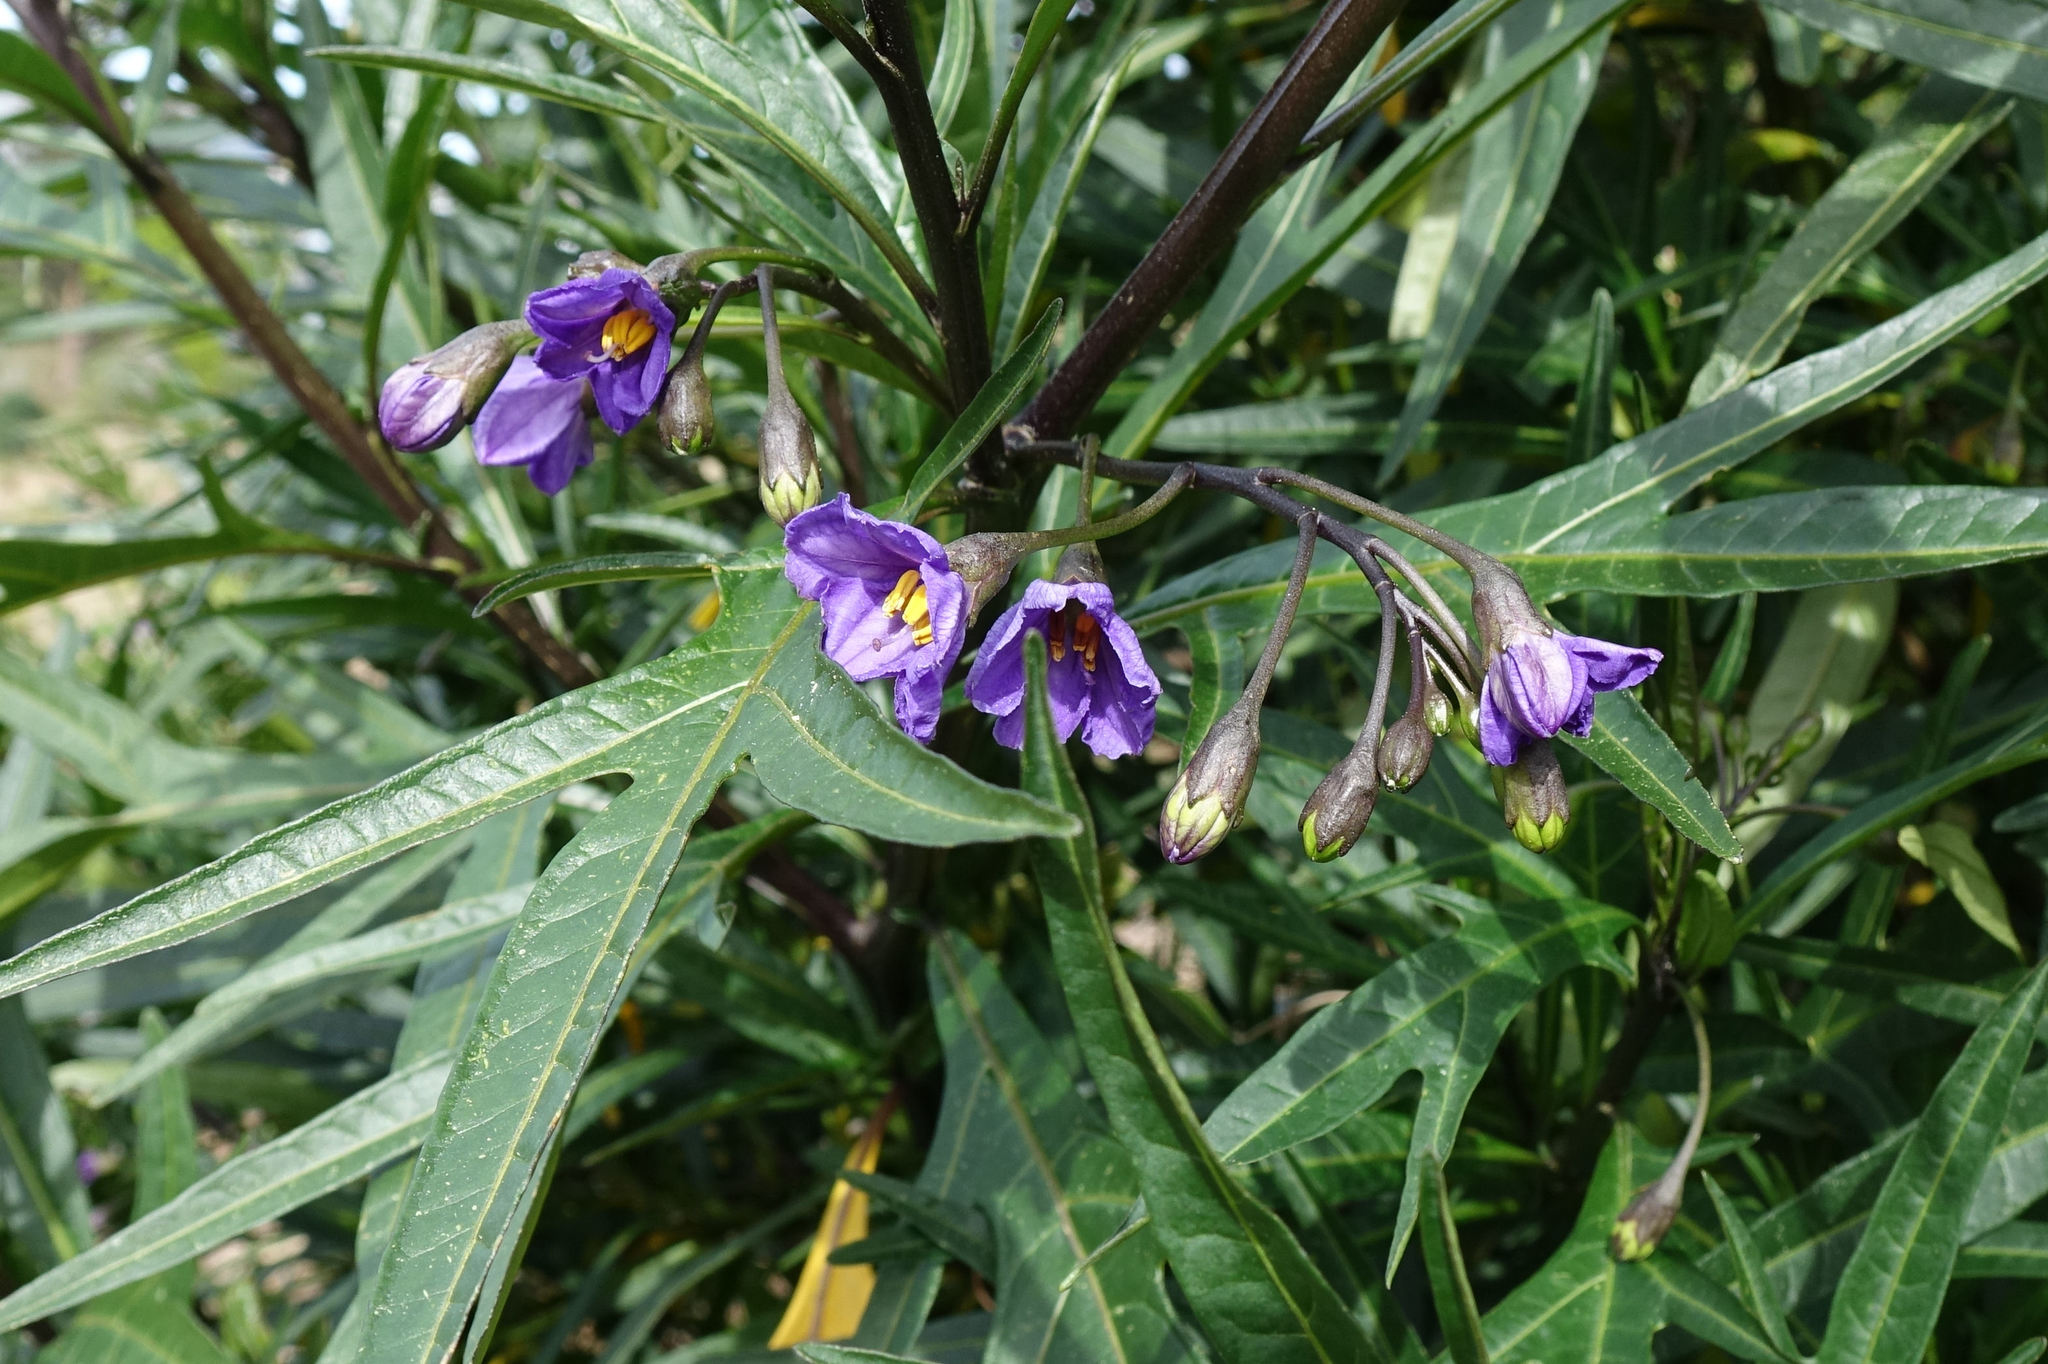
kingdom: Plantae
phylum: Tracheophyta
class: Magnoliopsida
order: Solanales
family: Solanaceae
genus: Solanum
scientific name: Solanum laciniatum
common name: Kangaroo-apple
